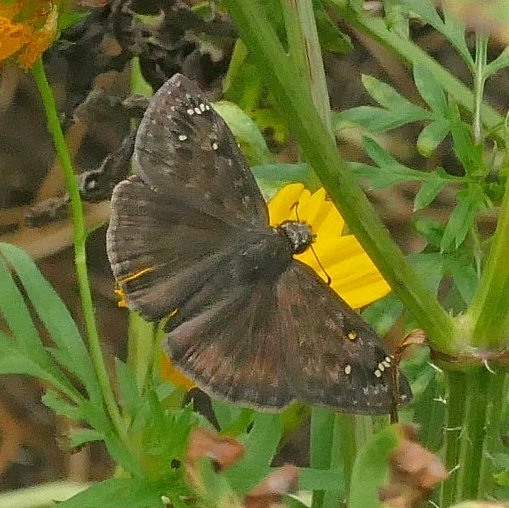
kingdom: Animalia
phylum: Arthropoda
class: Insecta
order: Lepidoptera
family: Hesperiidae
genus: Erynnis
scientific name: Erynnis horatius
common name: Horace's duskywing
